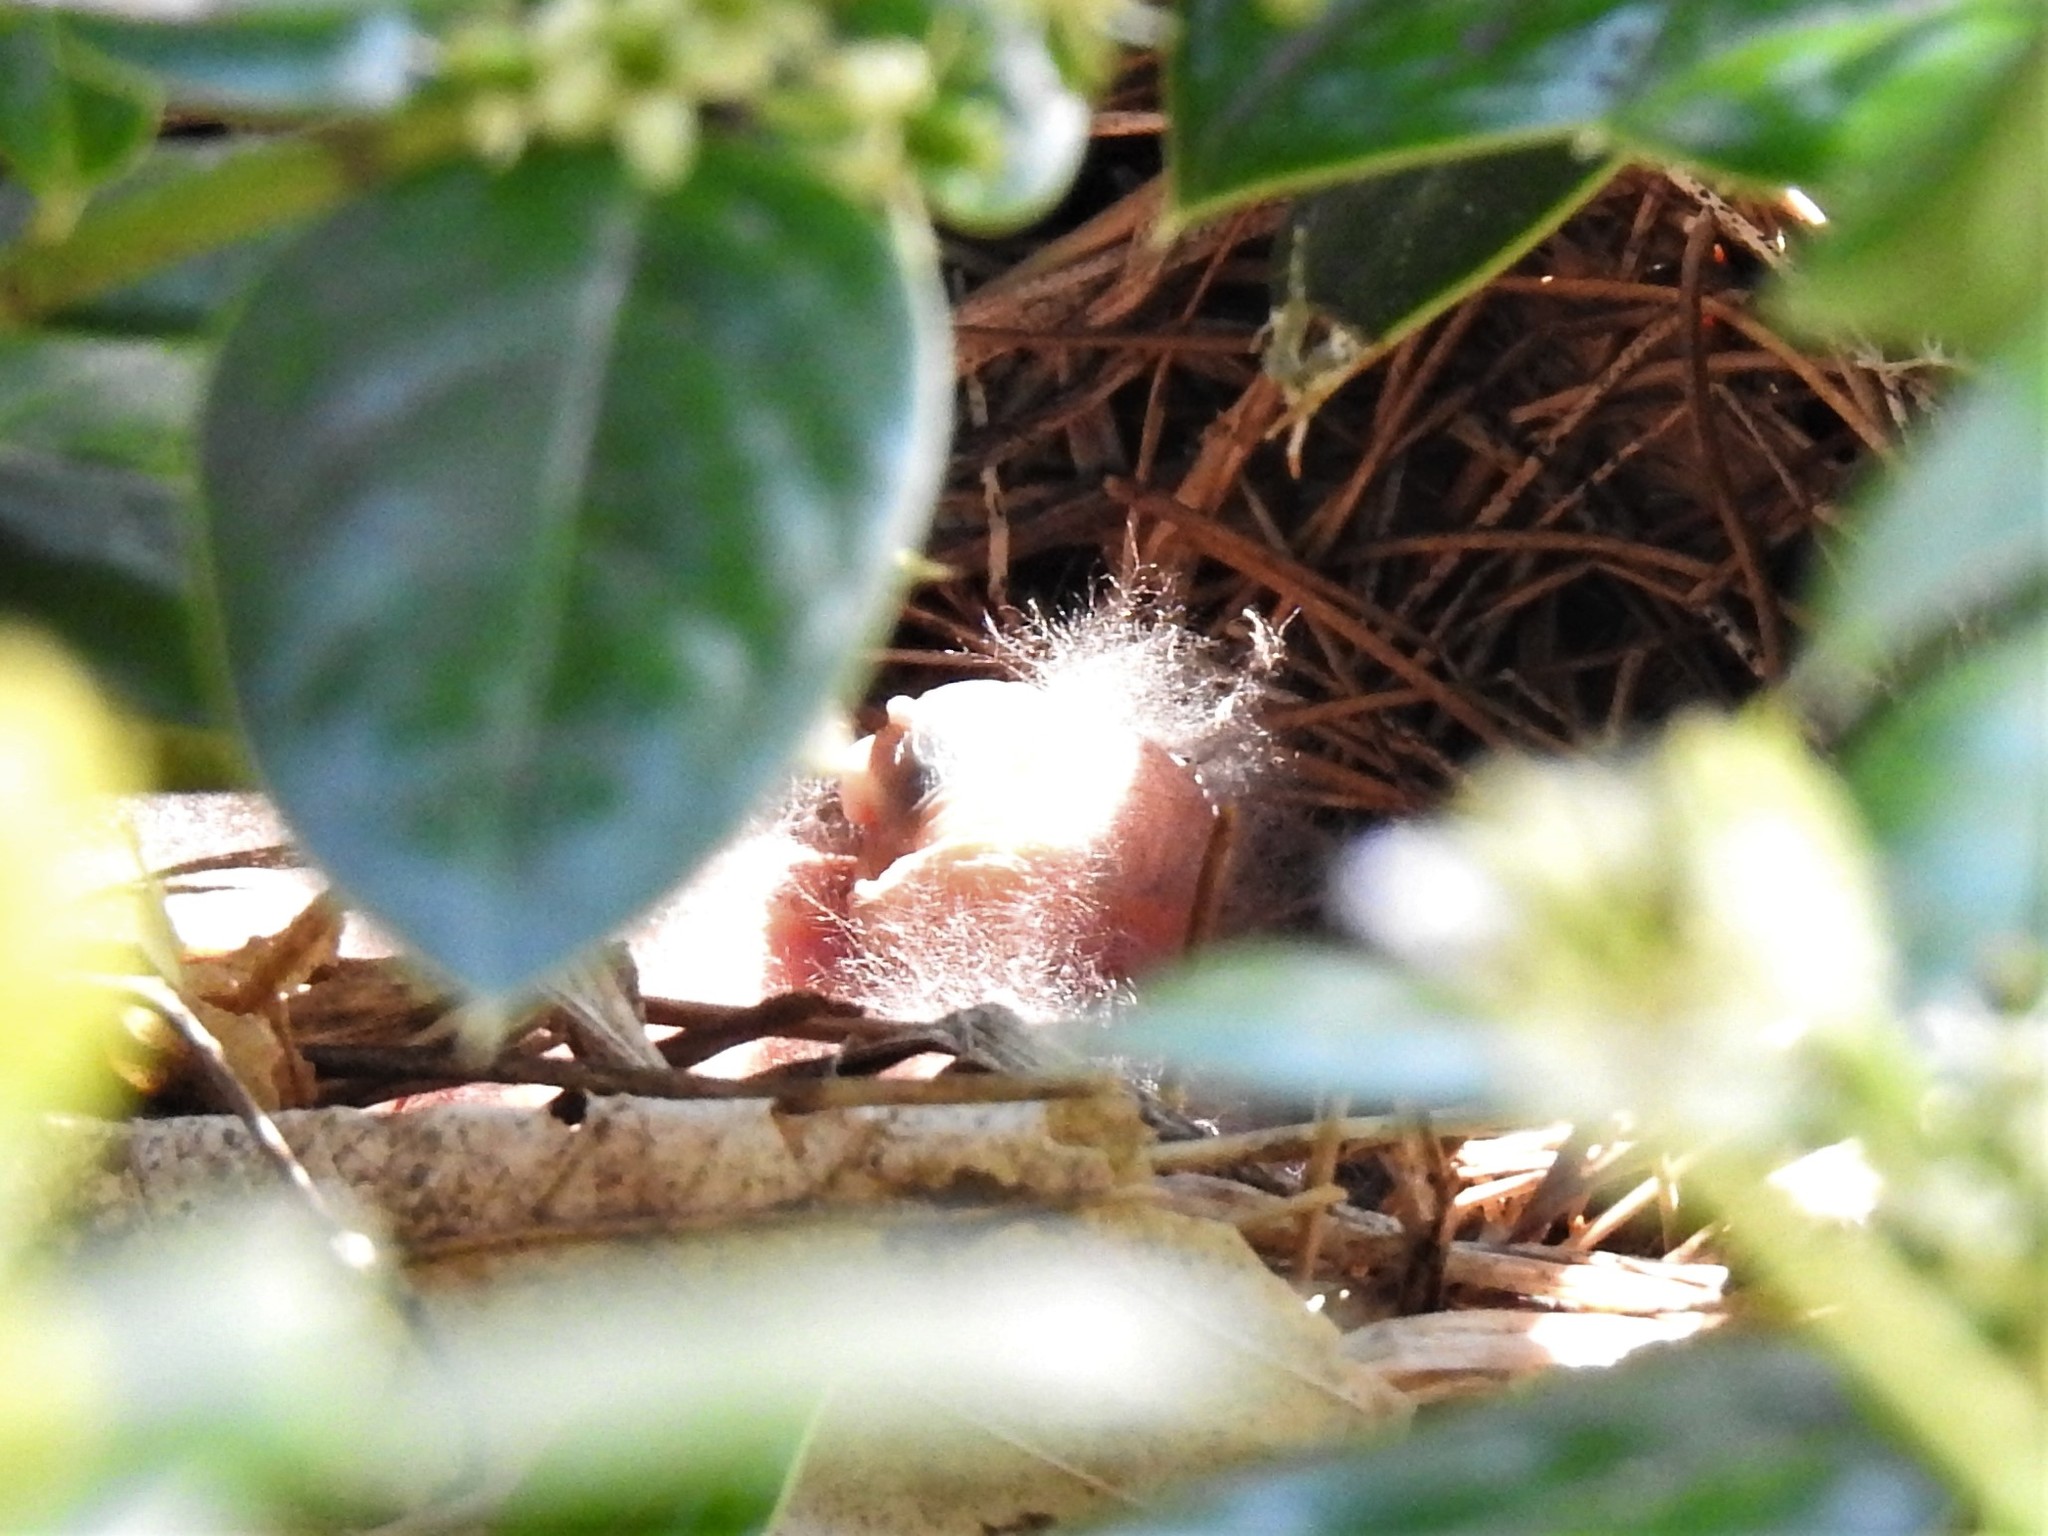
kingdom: Animalia
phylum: Chordata
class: Aves
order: Passeriformes
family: Cardinalidae
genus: Cardinalis
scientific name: Cardinalis cardinalis
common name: Northern cardinal
